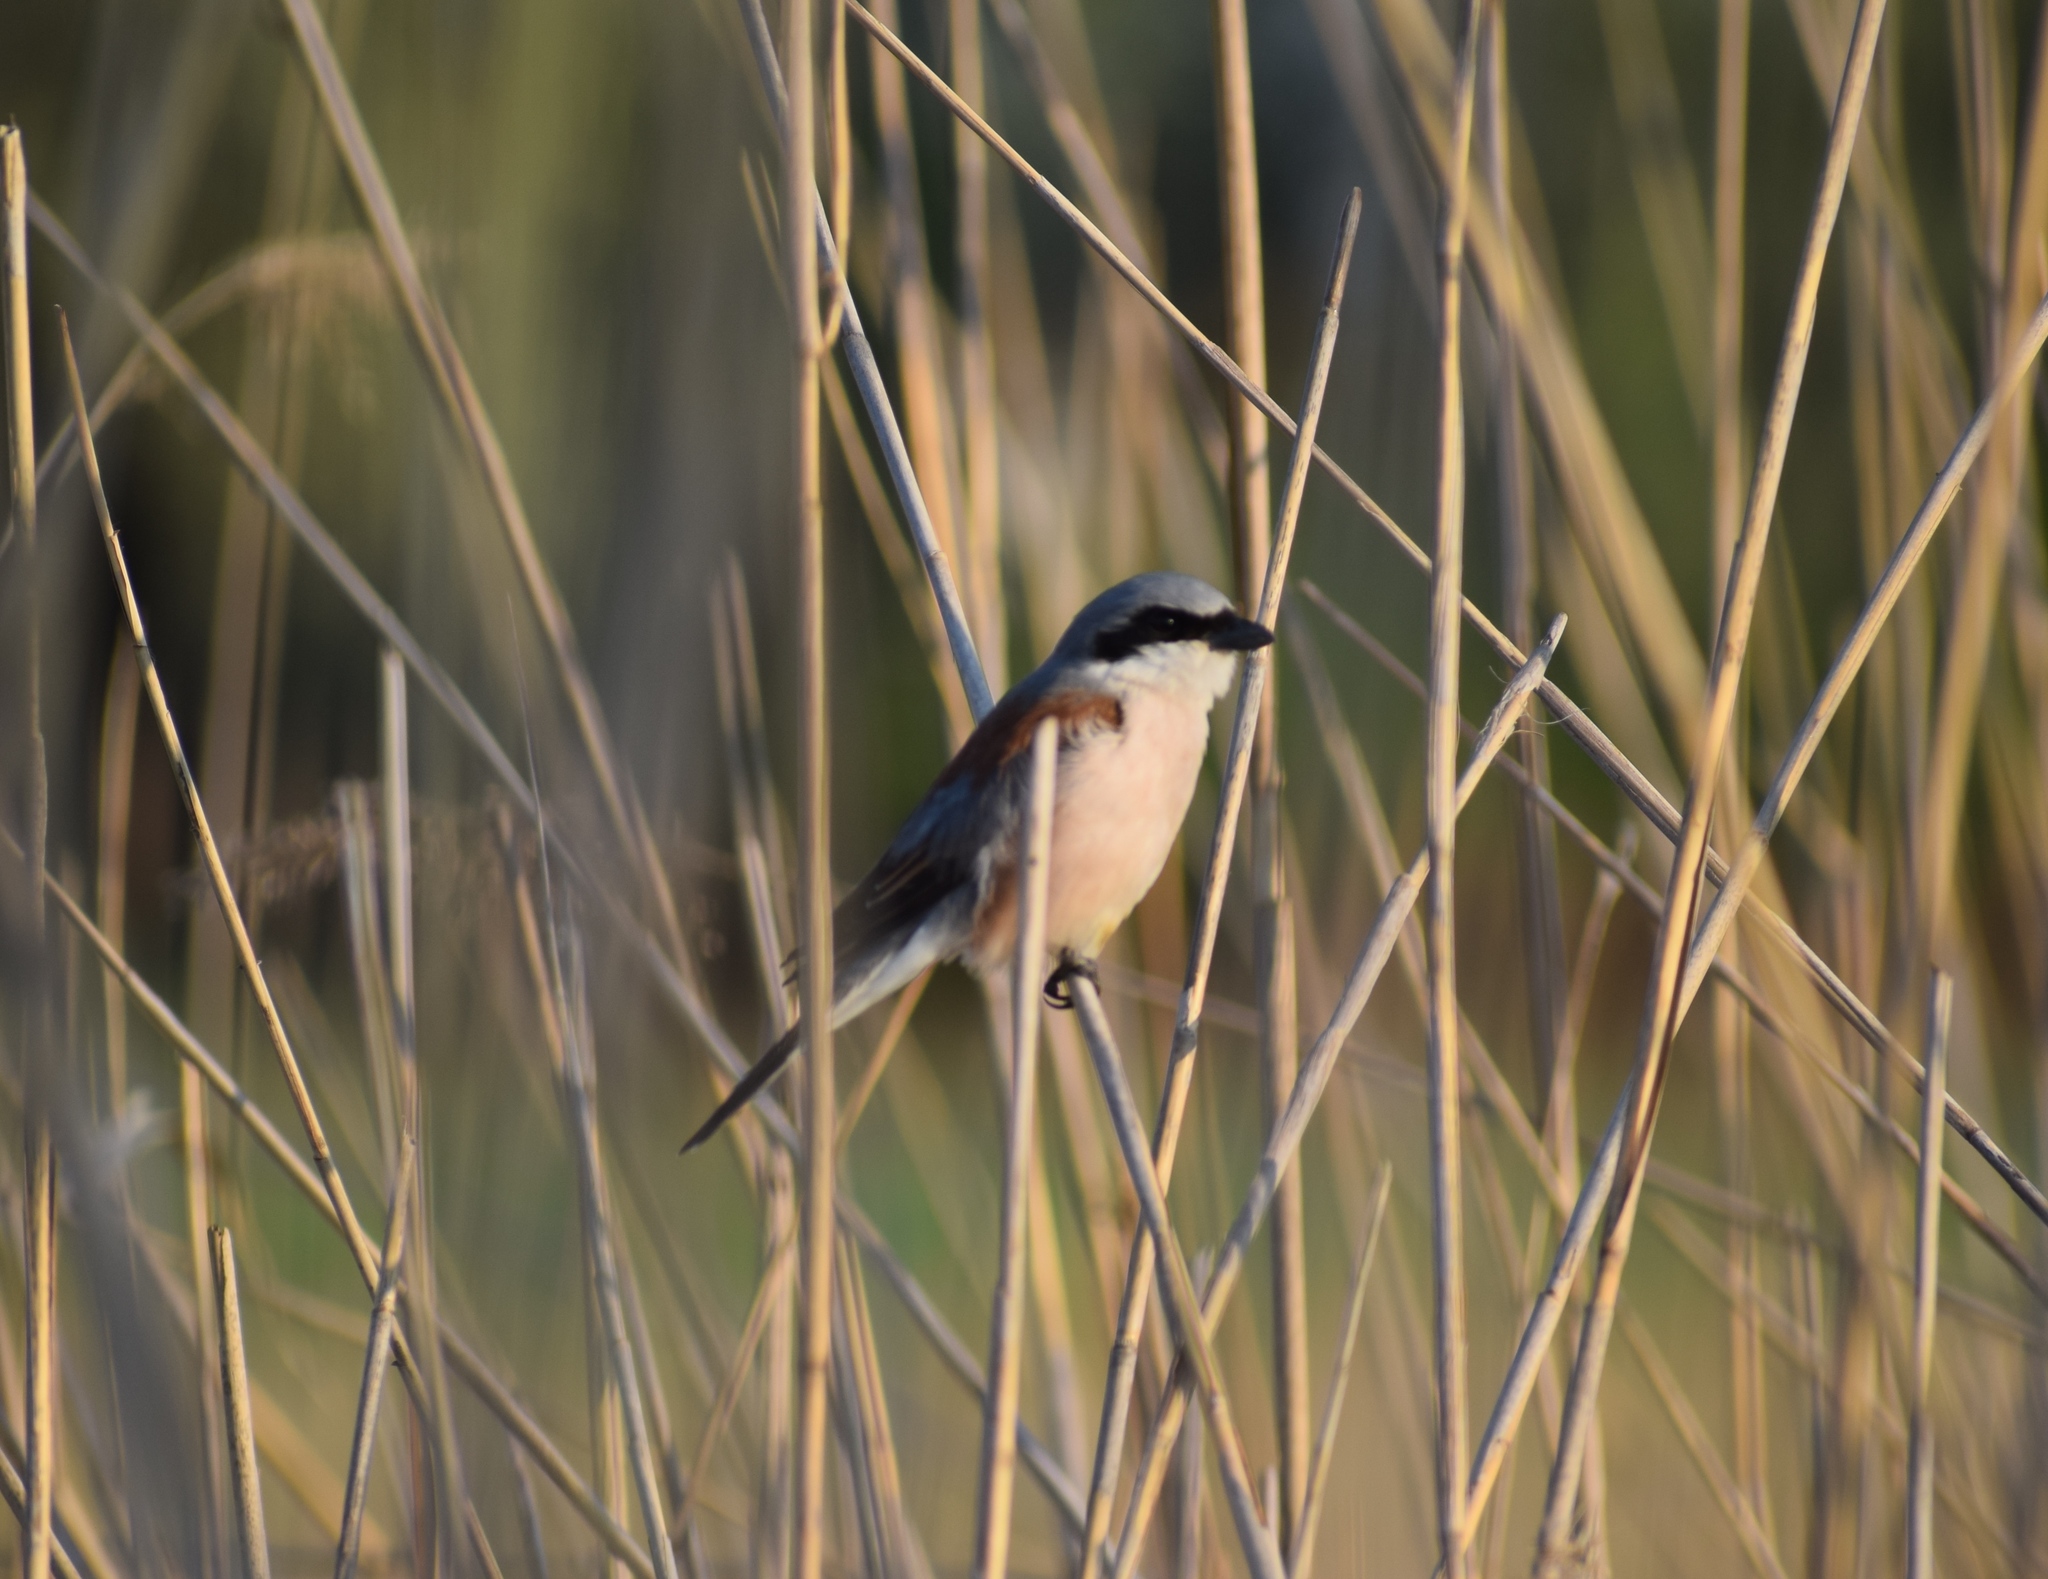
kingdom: Animalia
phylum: Chordata
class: Aves
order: Passeriformes
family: Laniidae
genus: Lanius
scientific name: Lanius collurio
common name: Red-backed shrike
